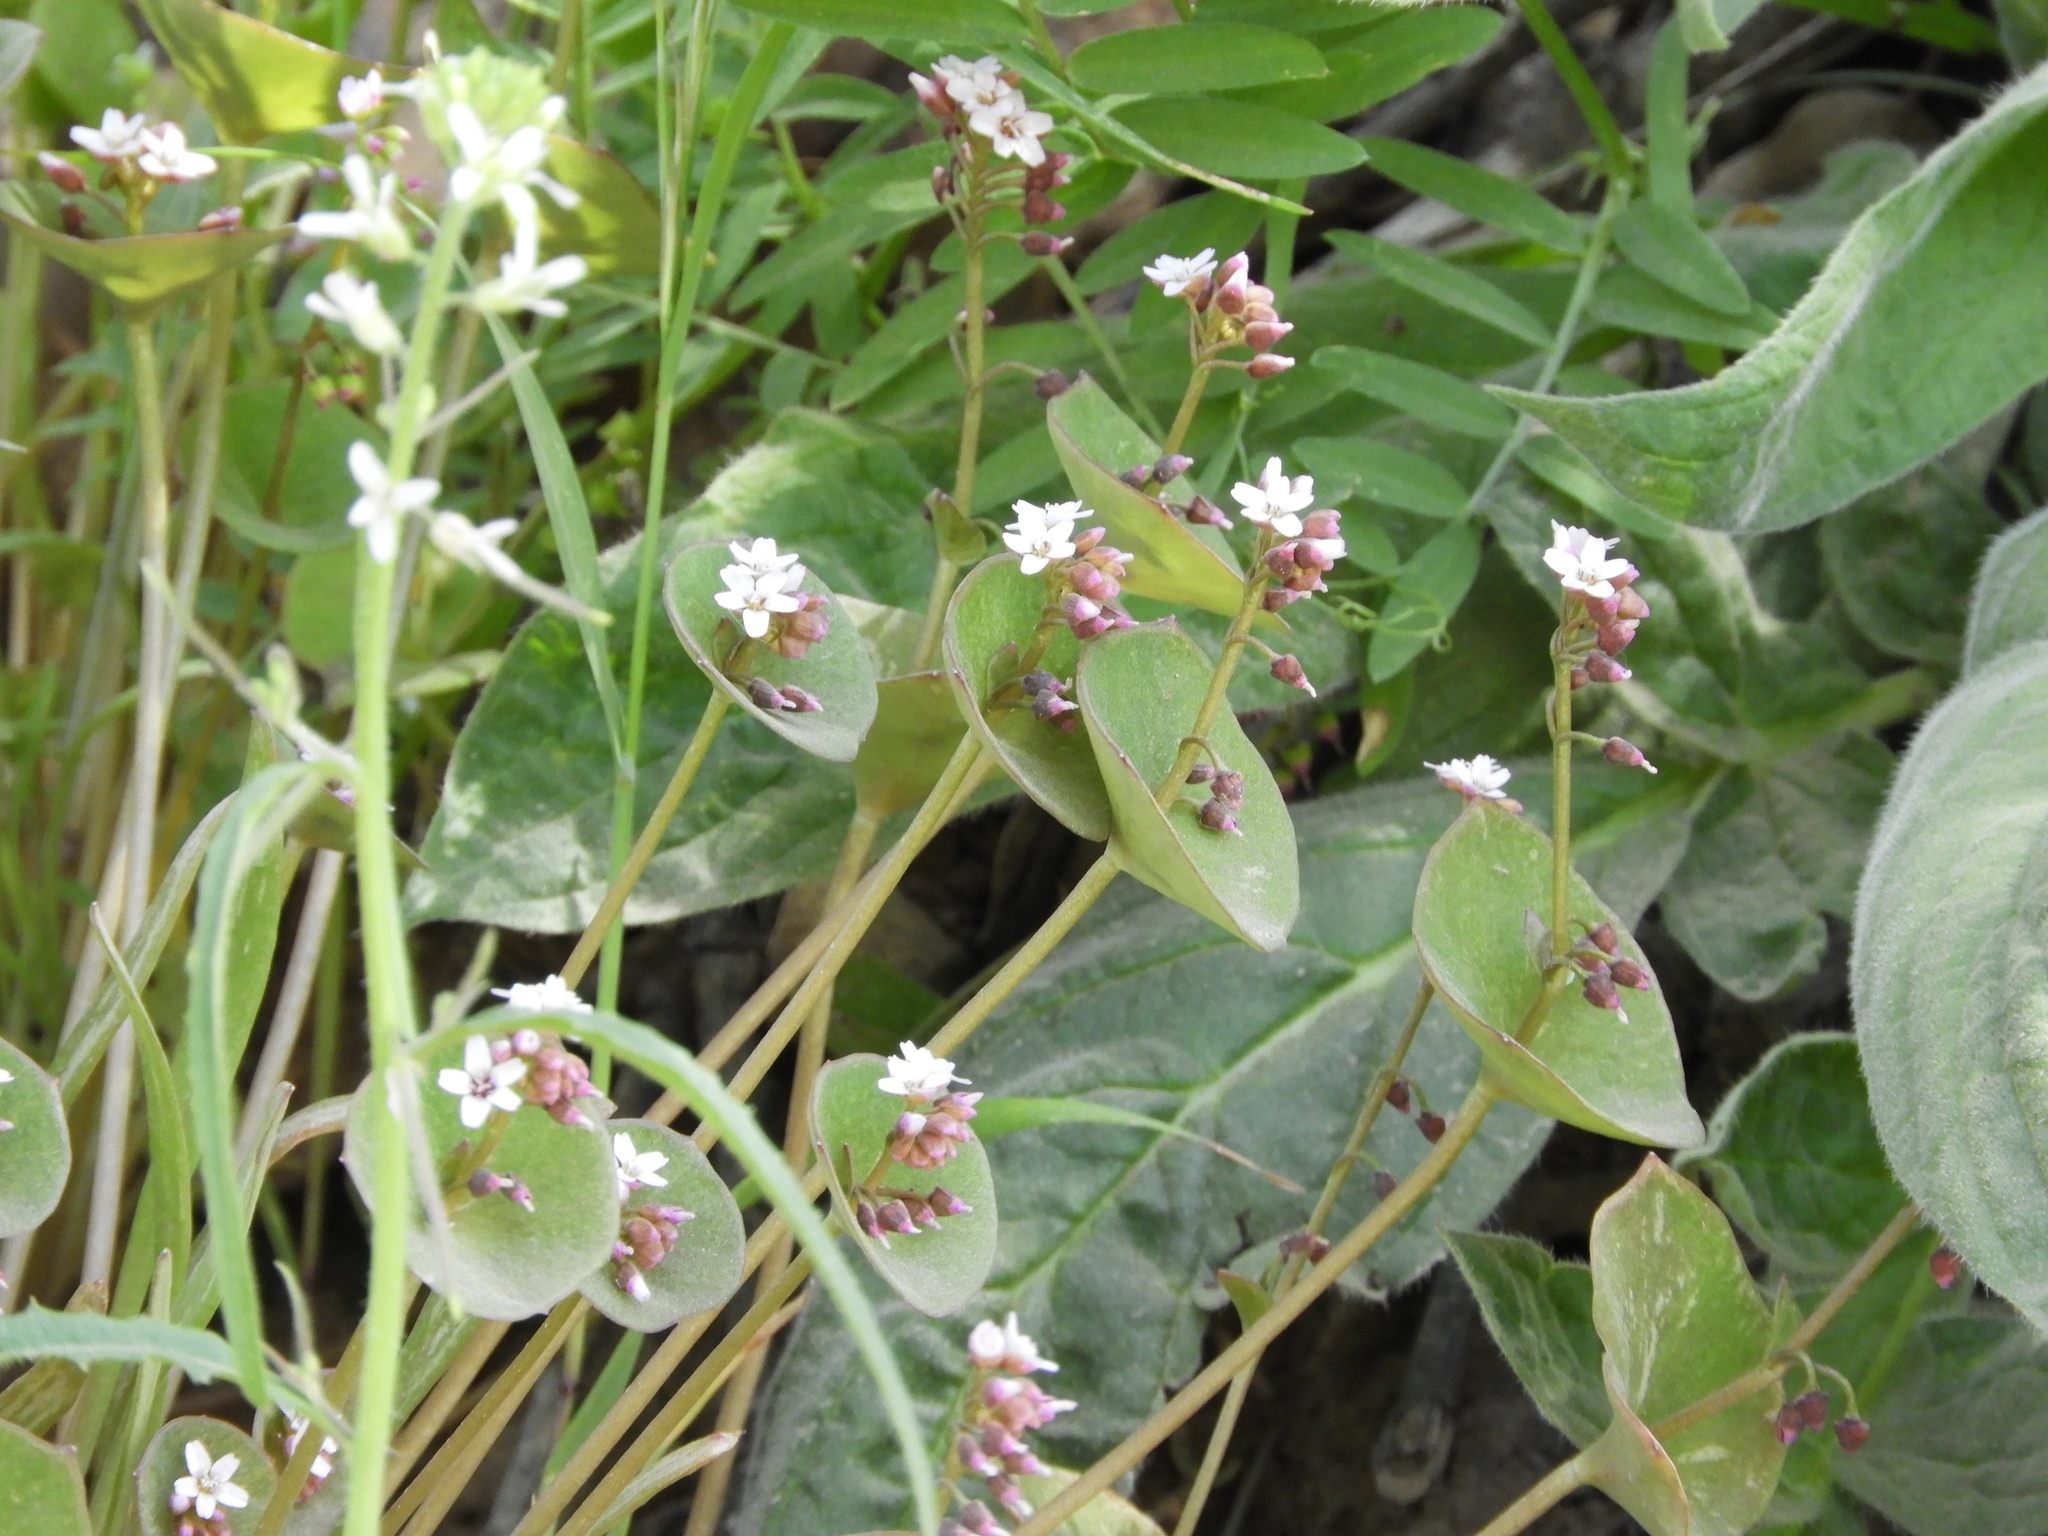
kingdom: Plantae
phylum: Tracheophyta
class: Magnoliopsida
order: Caryophyllales
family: Montiaceae
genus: Claytonia
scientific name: Claytonia parviflora
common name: Indian-lettuce
